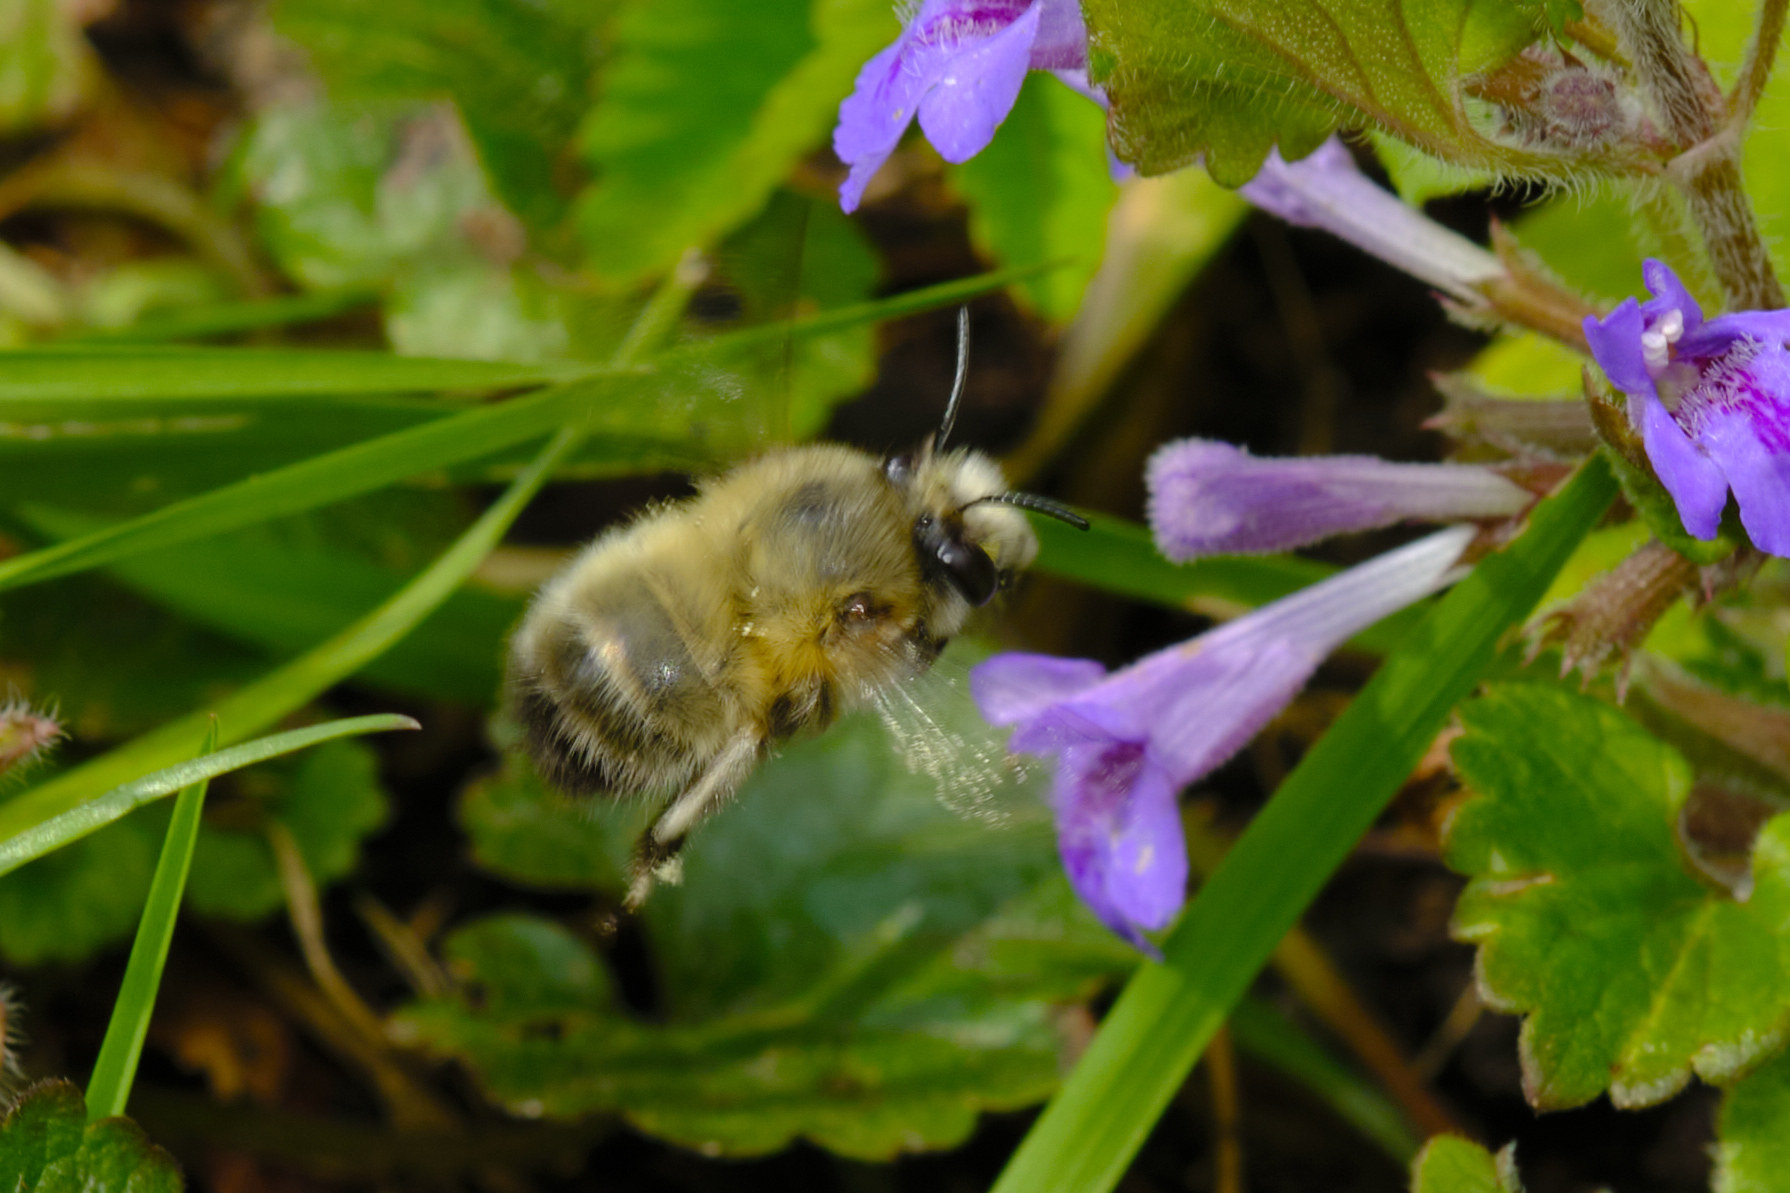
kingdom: Animalia
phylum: Arthropoda
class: Insecta
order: Hymenoptera
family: Apidae
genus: Anthophora
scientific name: Anthophora plumipes
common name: Hairy-footed flower bee
